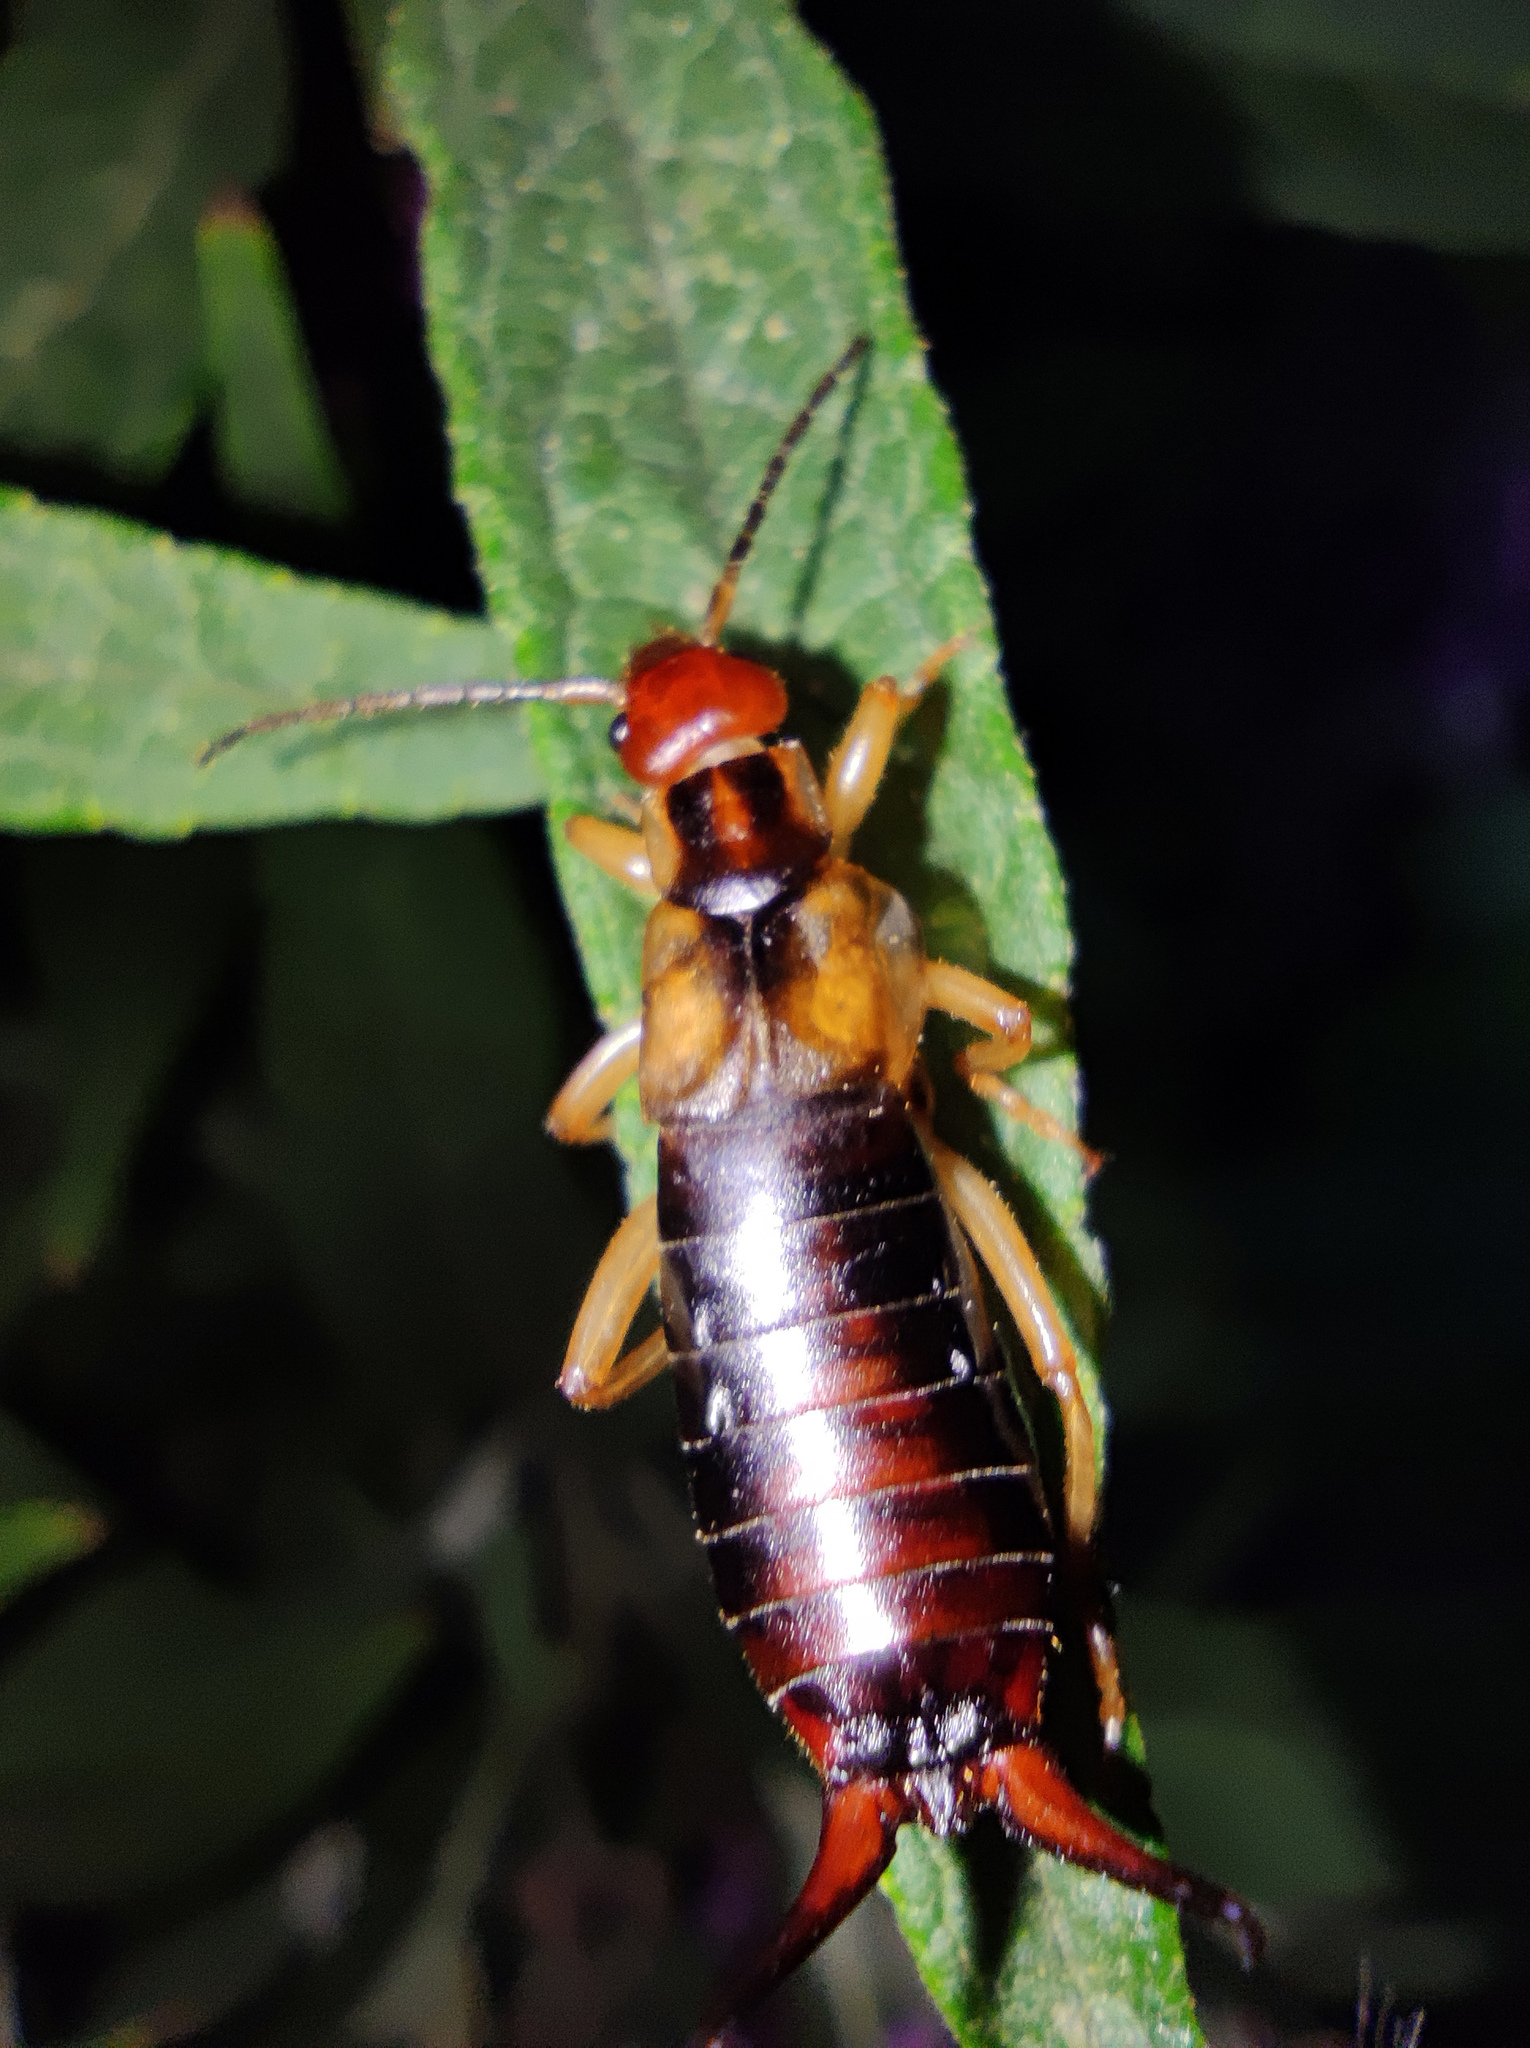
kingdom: Animalia
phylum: Arthropoda
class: Insecta
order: Dermaptera
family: Forficulidae
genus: Forficula
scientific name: Forficula tomis
